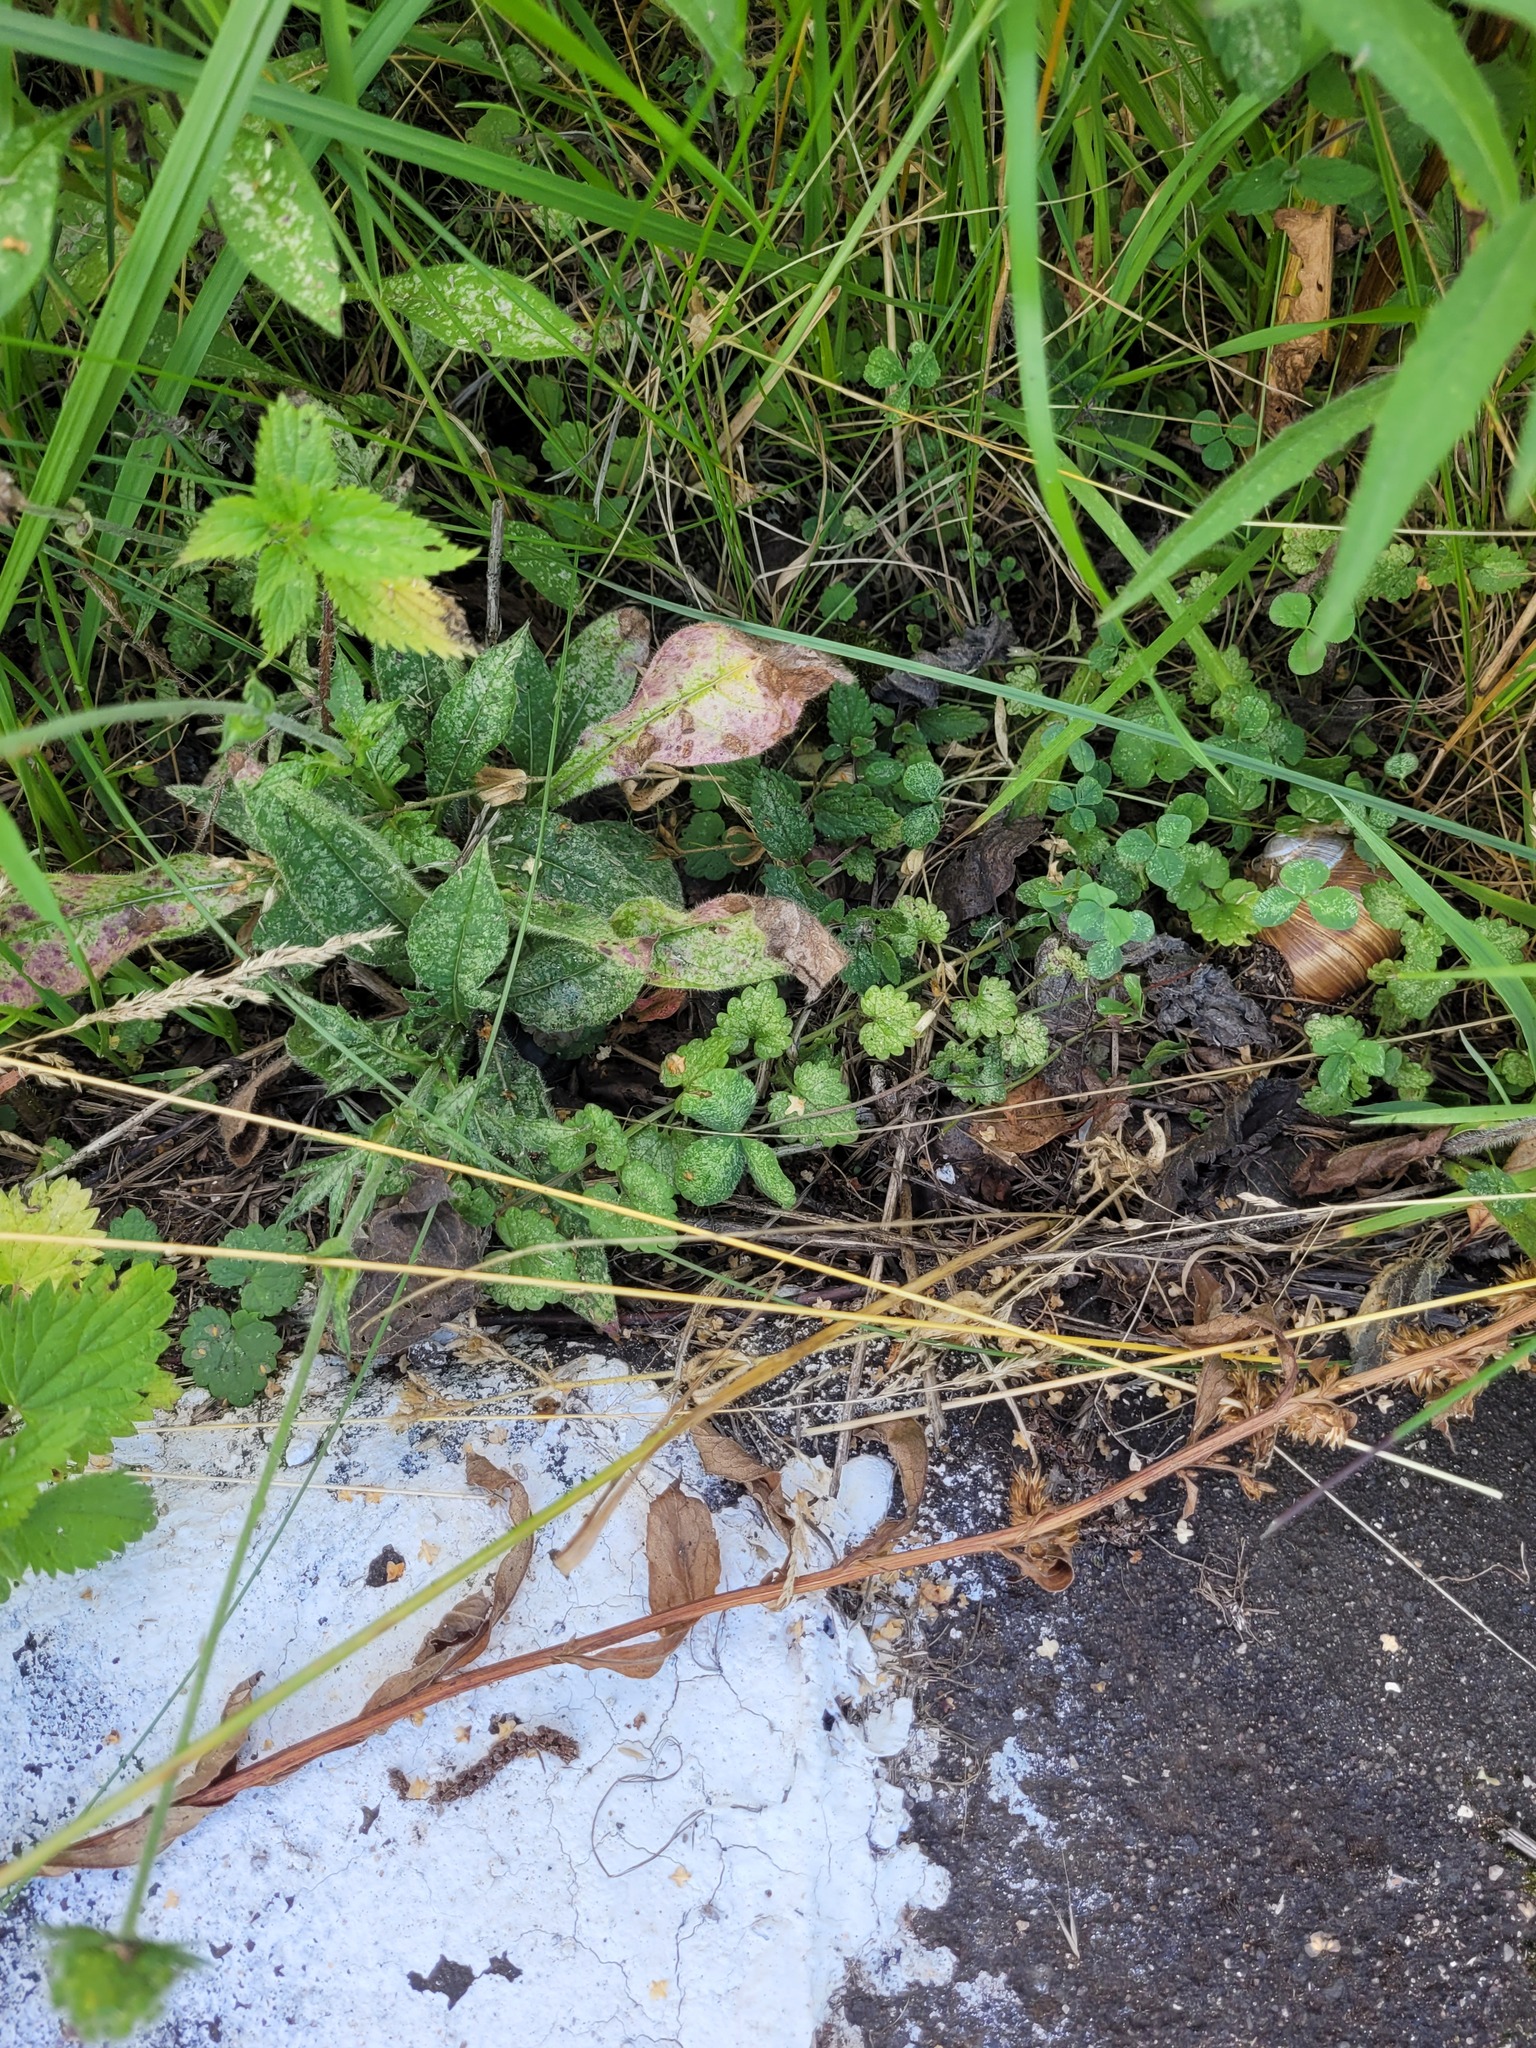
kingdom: Plantae
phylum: Tracheophyta
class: Magnoliopsida
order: Lamiales
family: Lamiaceae
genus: Glechoma
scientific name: Glechoma hederacea
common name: Ground ivy
